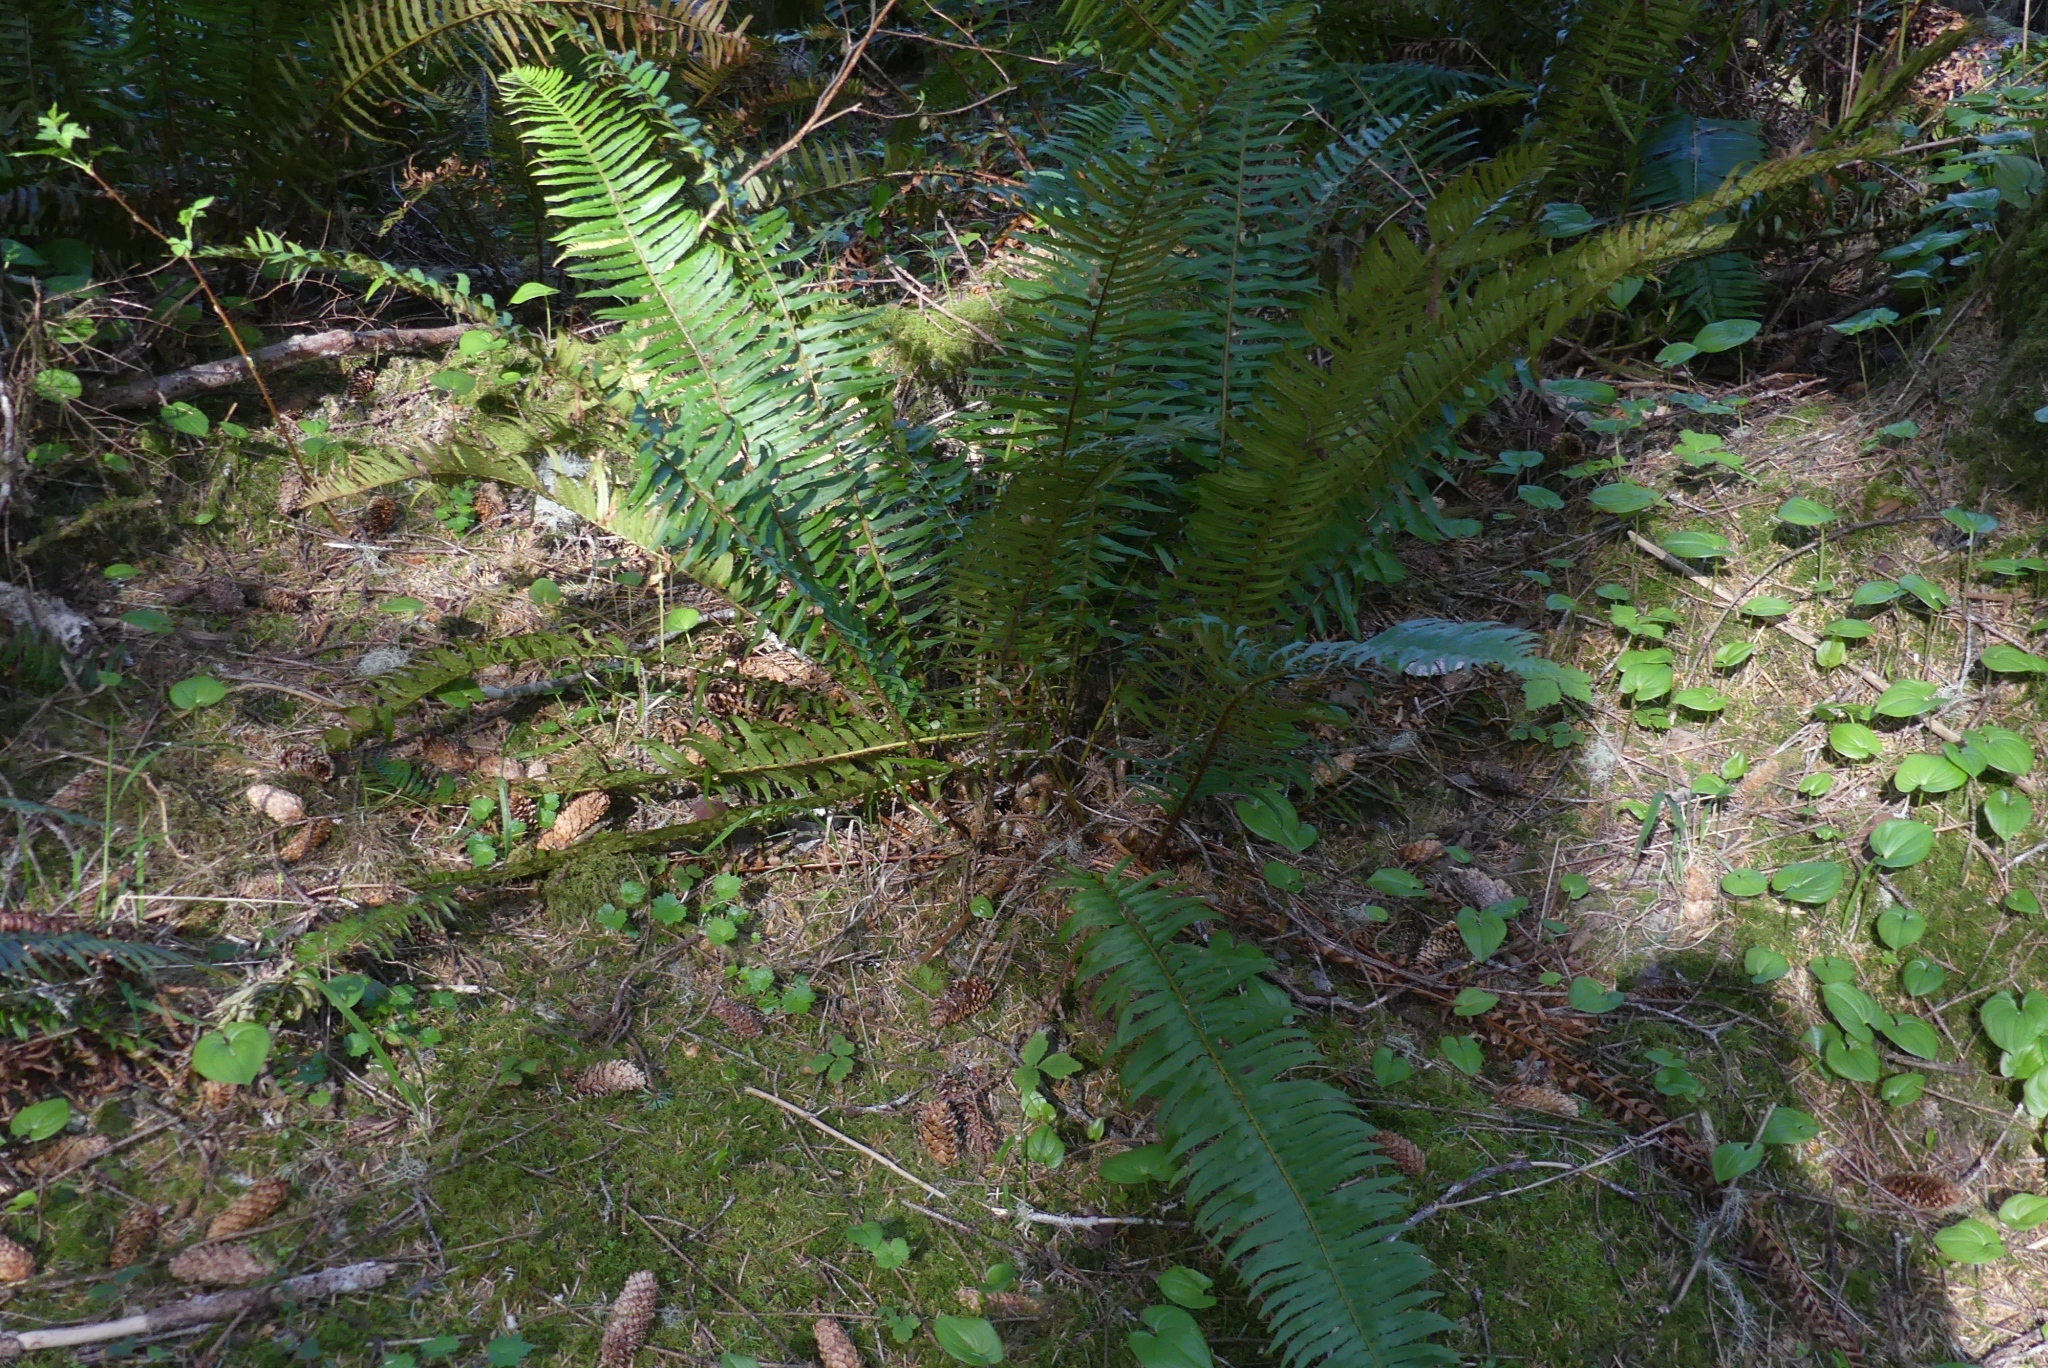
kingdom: Plantae
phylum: Tracheophyta
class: Polypodiopsida
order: Polypodiales
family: Dryopteridaceae
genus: Polystichum
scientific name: Polystichum munitum
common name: Western sword-fern
